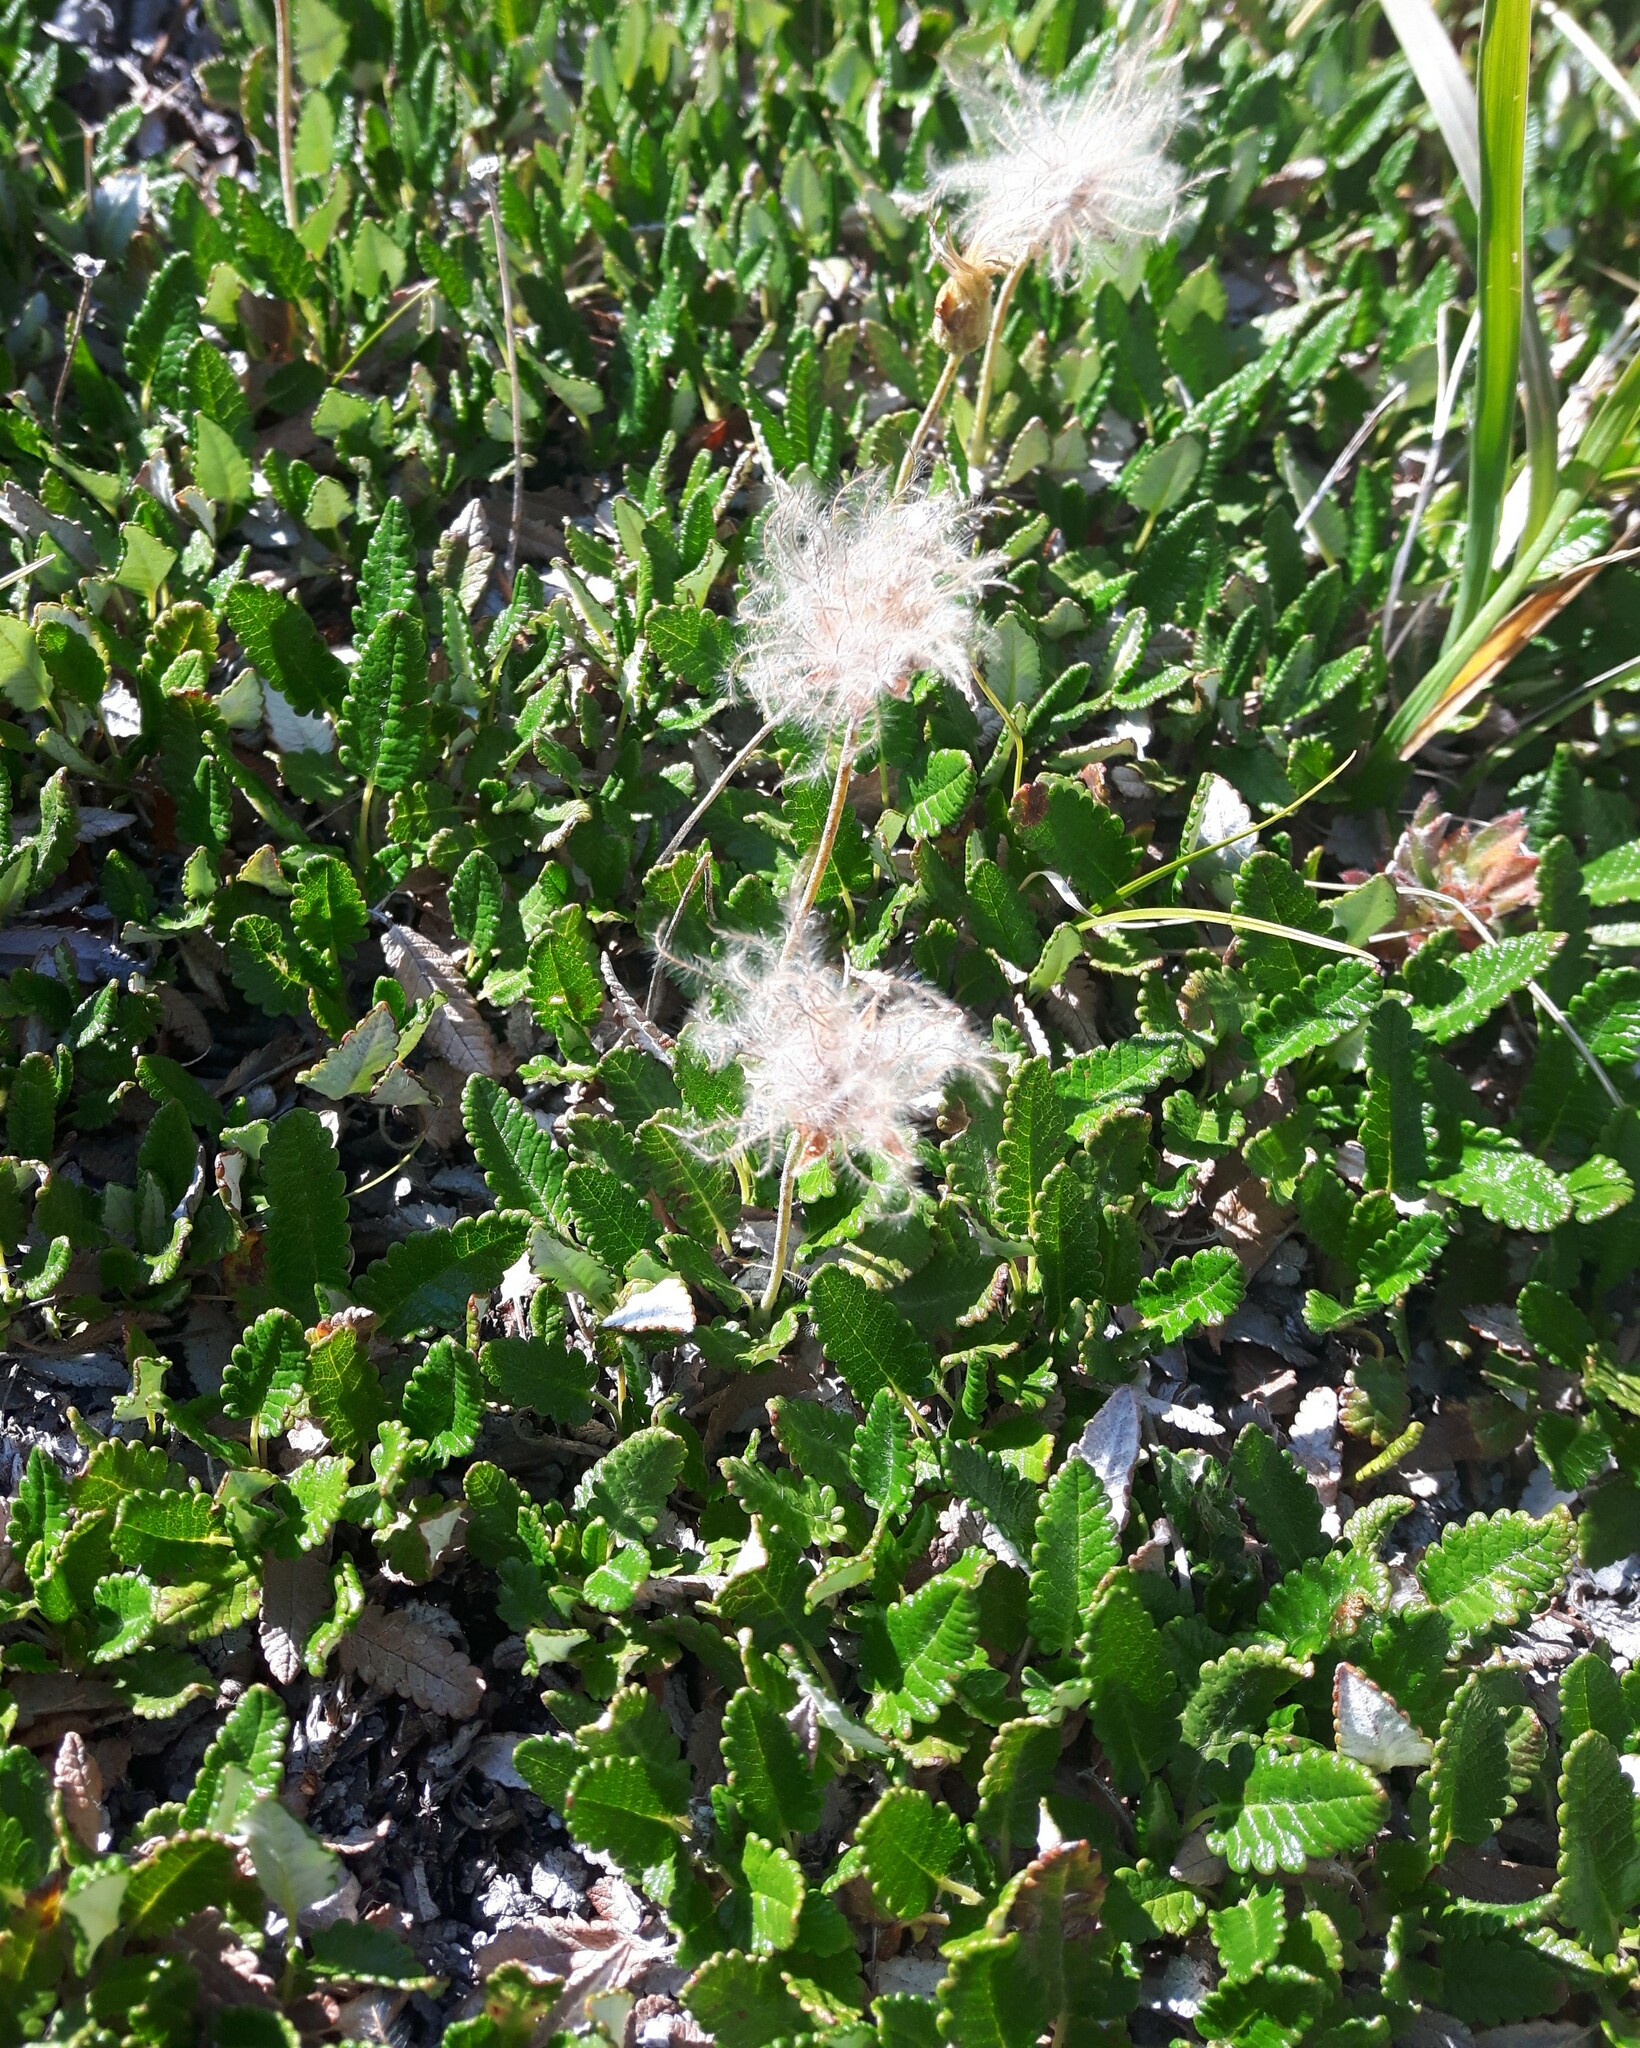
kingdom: Plantae
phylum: Tracheophyta
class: Magnoliopsida
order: Rosales
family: Rosaceae
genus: Dryas
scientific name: Dryas octopetala
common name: Eight-petal mountain-avens
